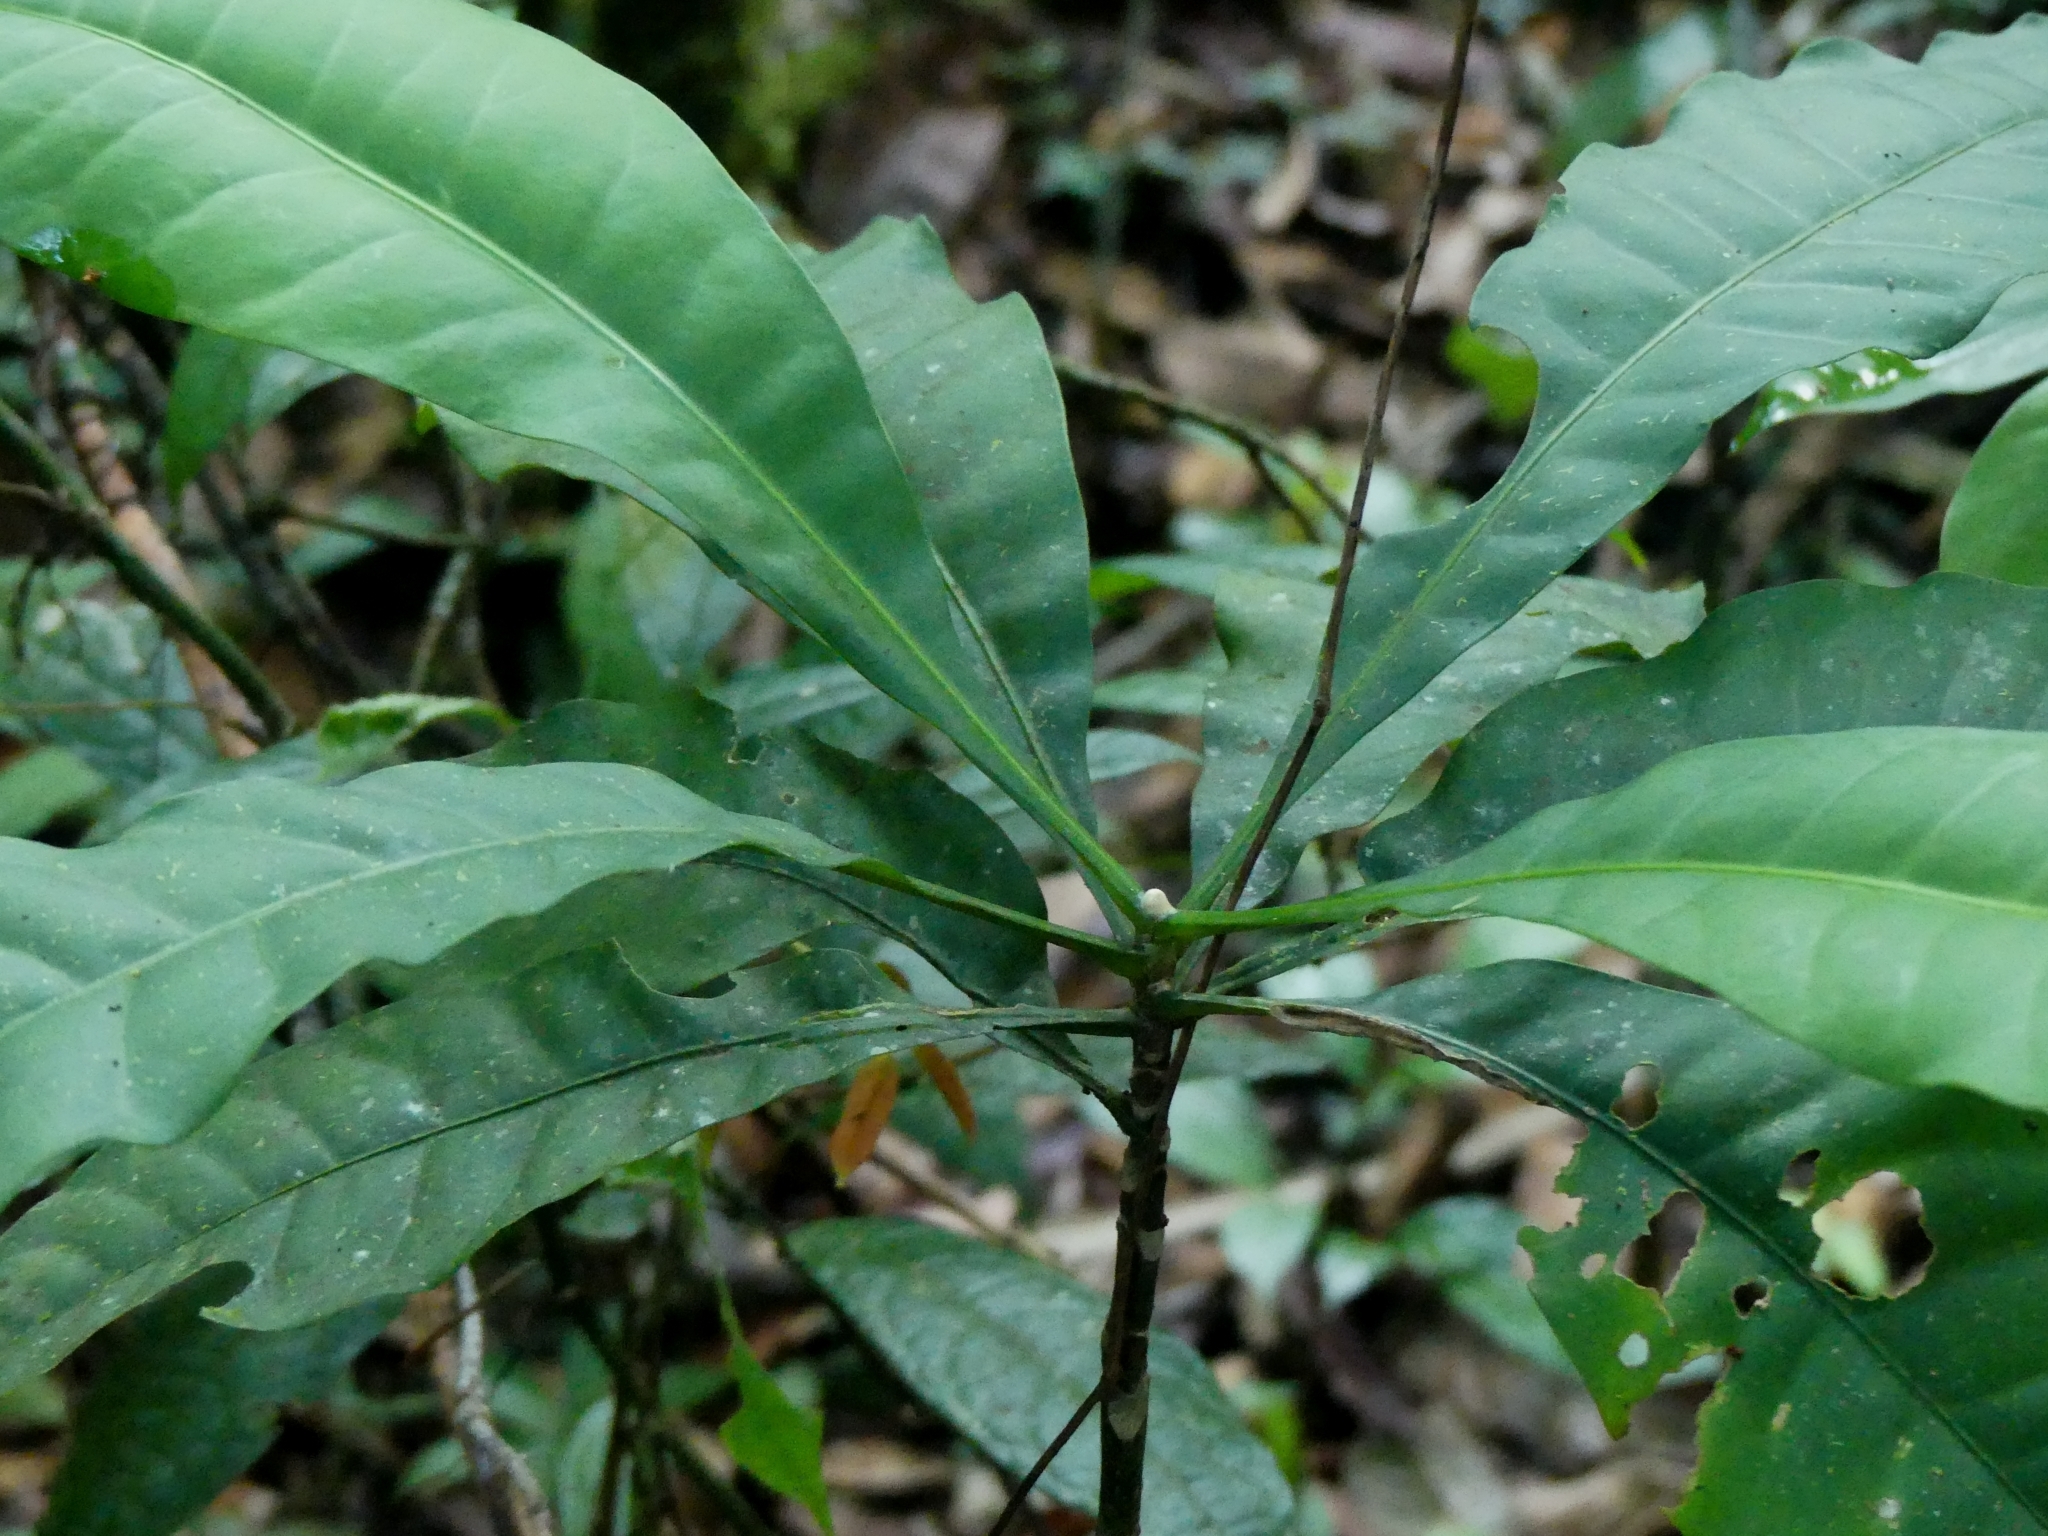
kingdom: Plantae
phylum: Tracheophyta
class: Magnoliopsida
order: Gentianales
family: Gentianaceae
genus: Potalia
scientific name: Potalia amara
